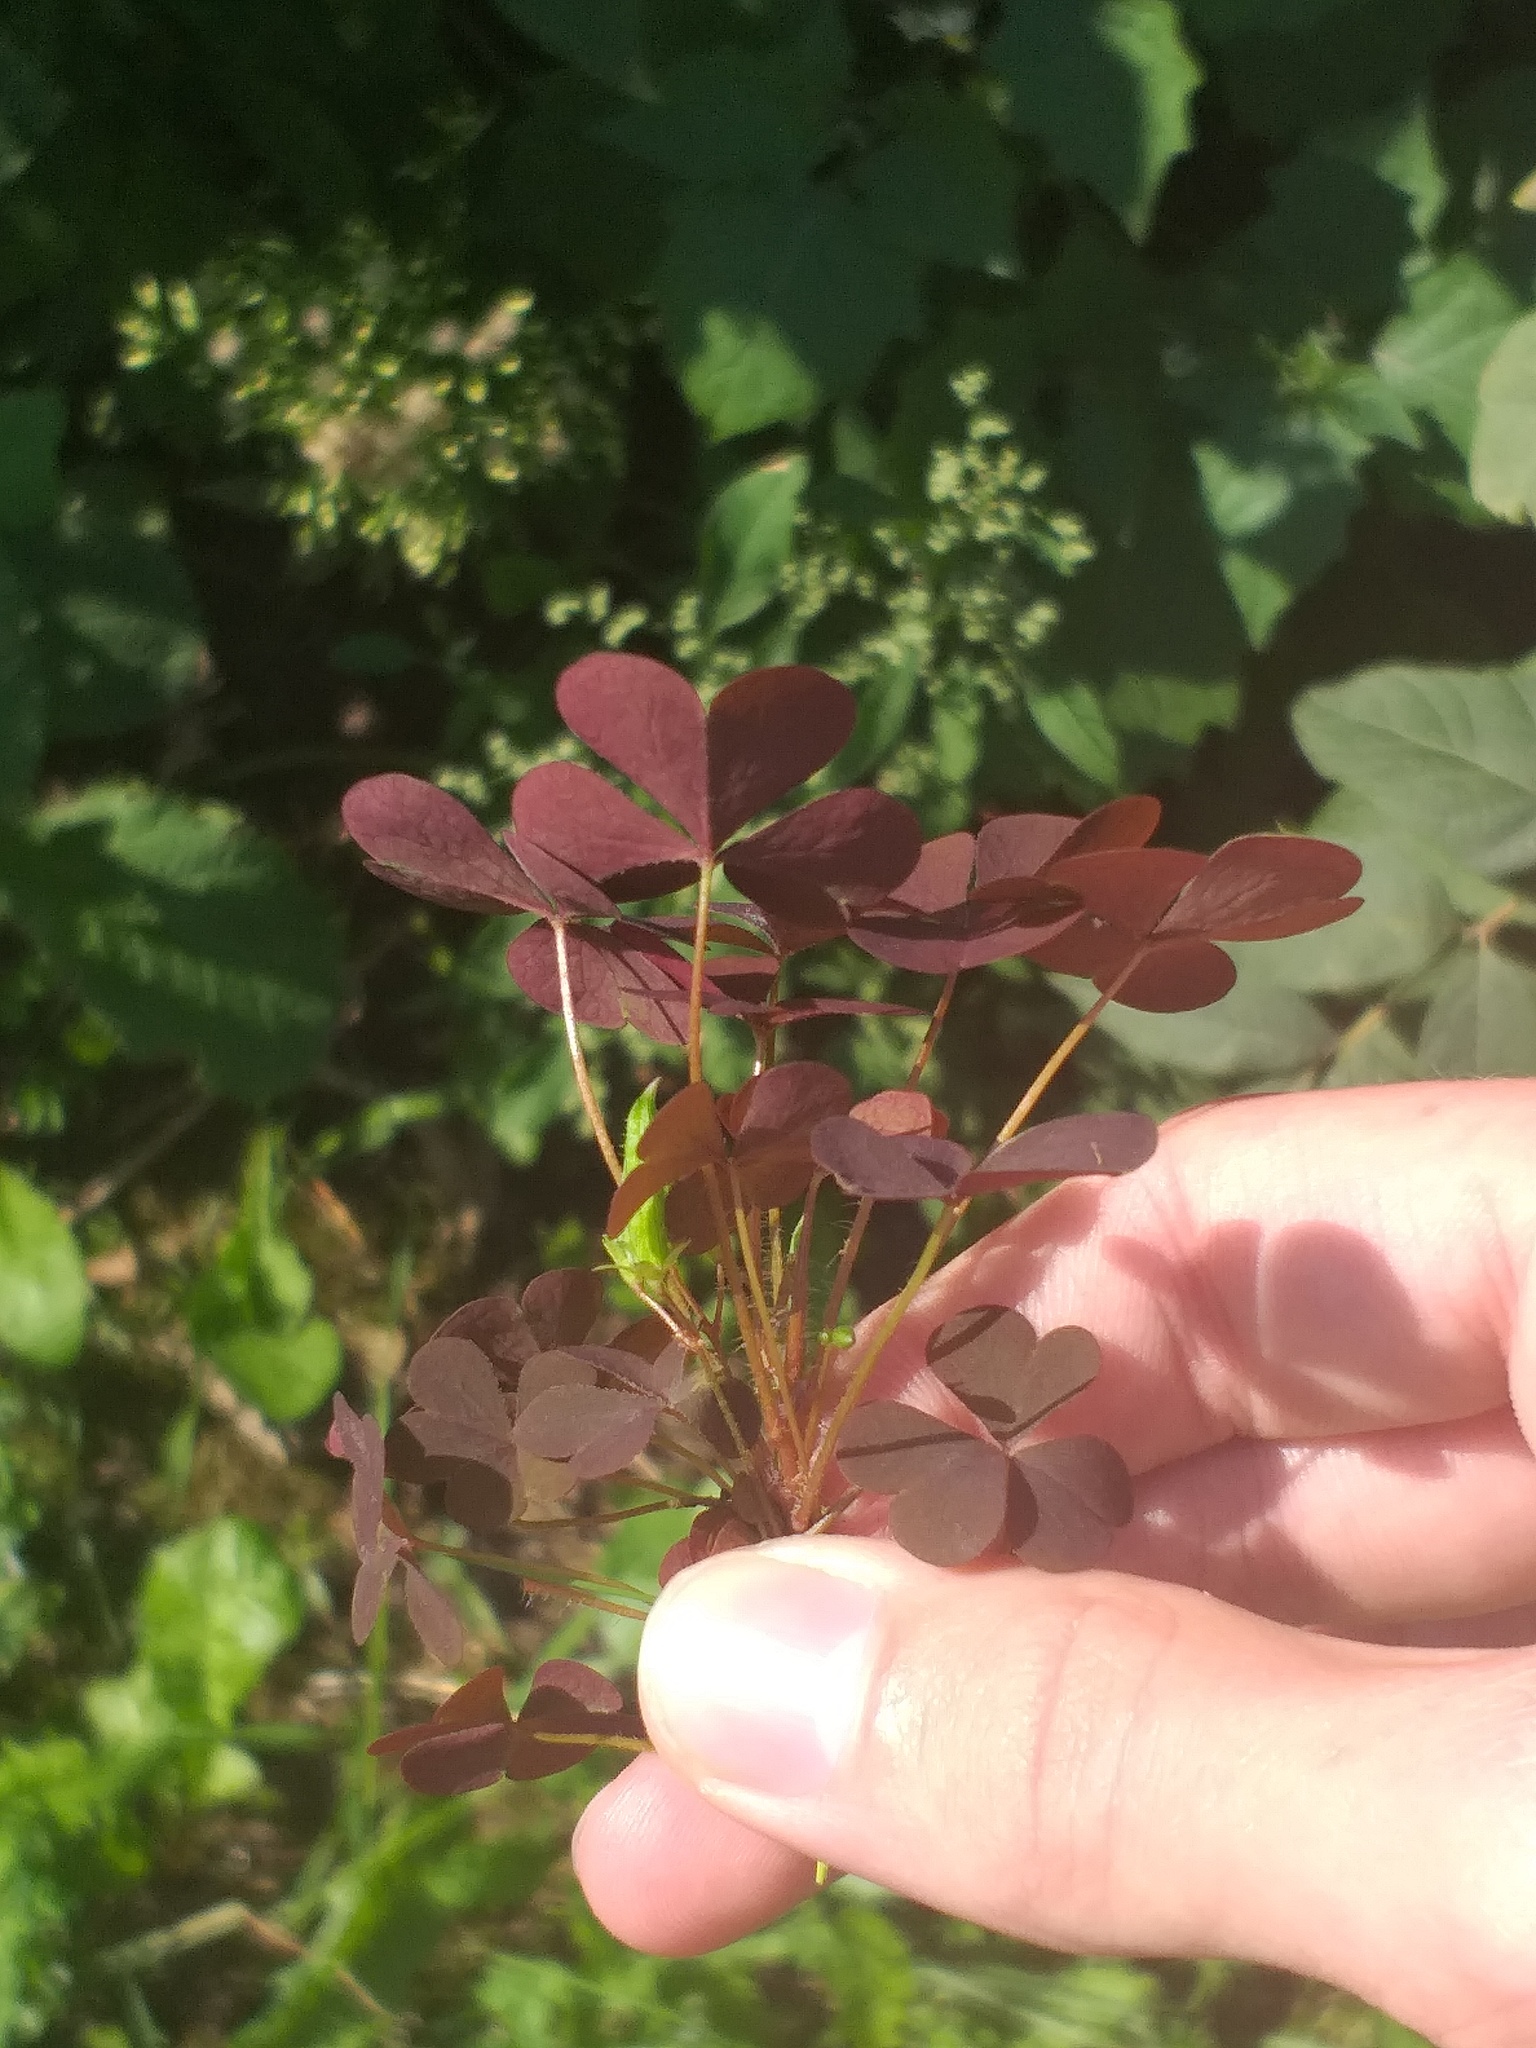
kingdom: Plantae
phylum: Tracheophyta
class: Magnoliopsida
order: Oxalidales
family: Oxalidaceae
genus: Oxalis
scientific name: Oxalis stricta
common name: Upright yellow-sorrel
